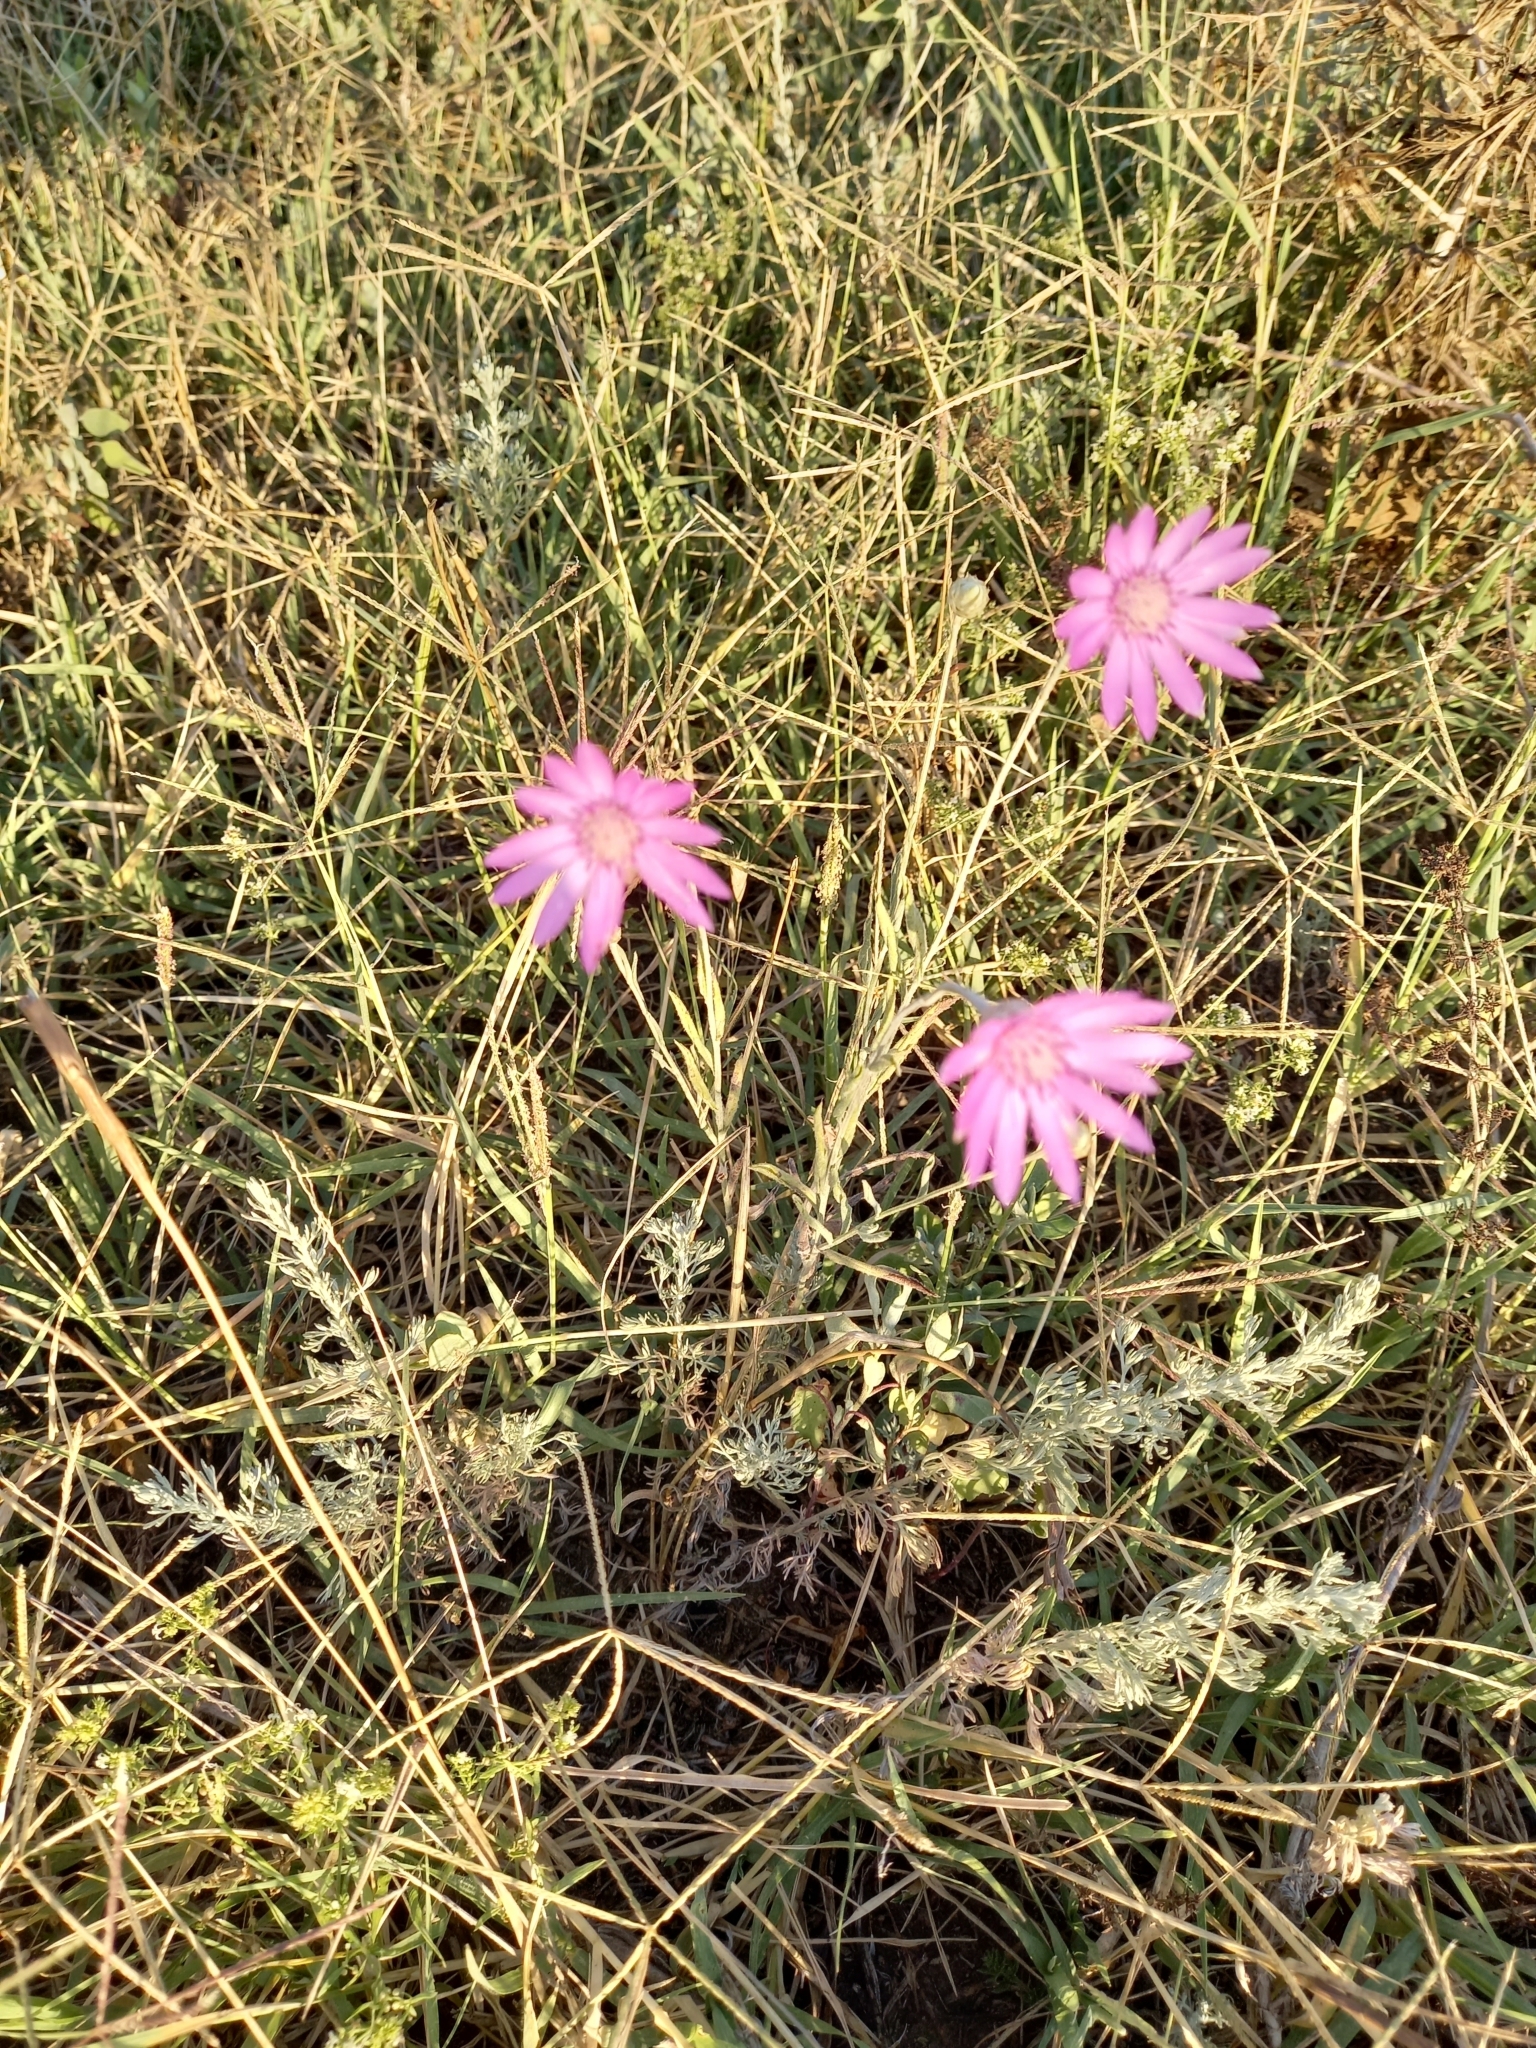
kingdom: Plantae
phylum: Tracheophyta
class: Magnoliopsida
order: Asterales
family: Asteraceae
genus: Xeranthemum
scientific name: Xeranthemum annuum
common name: Immortelle
